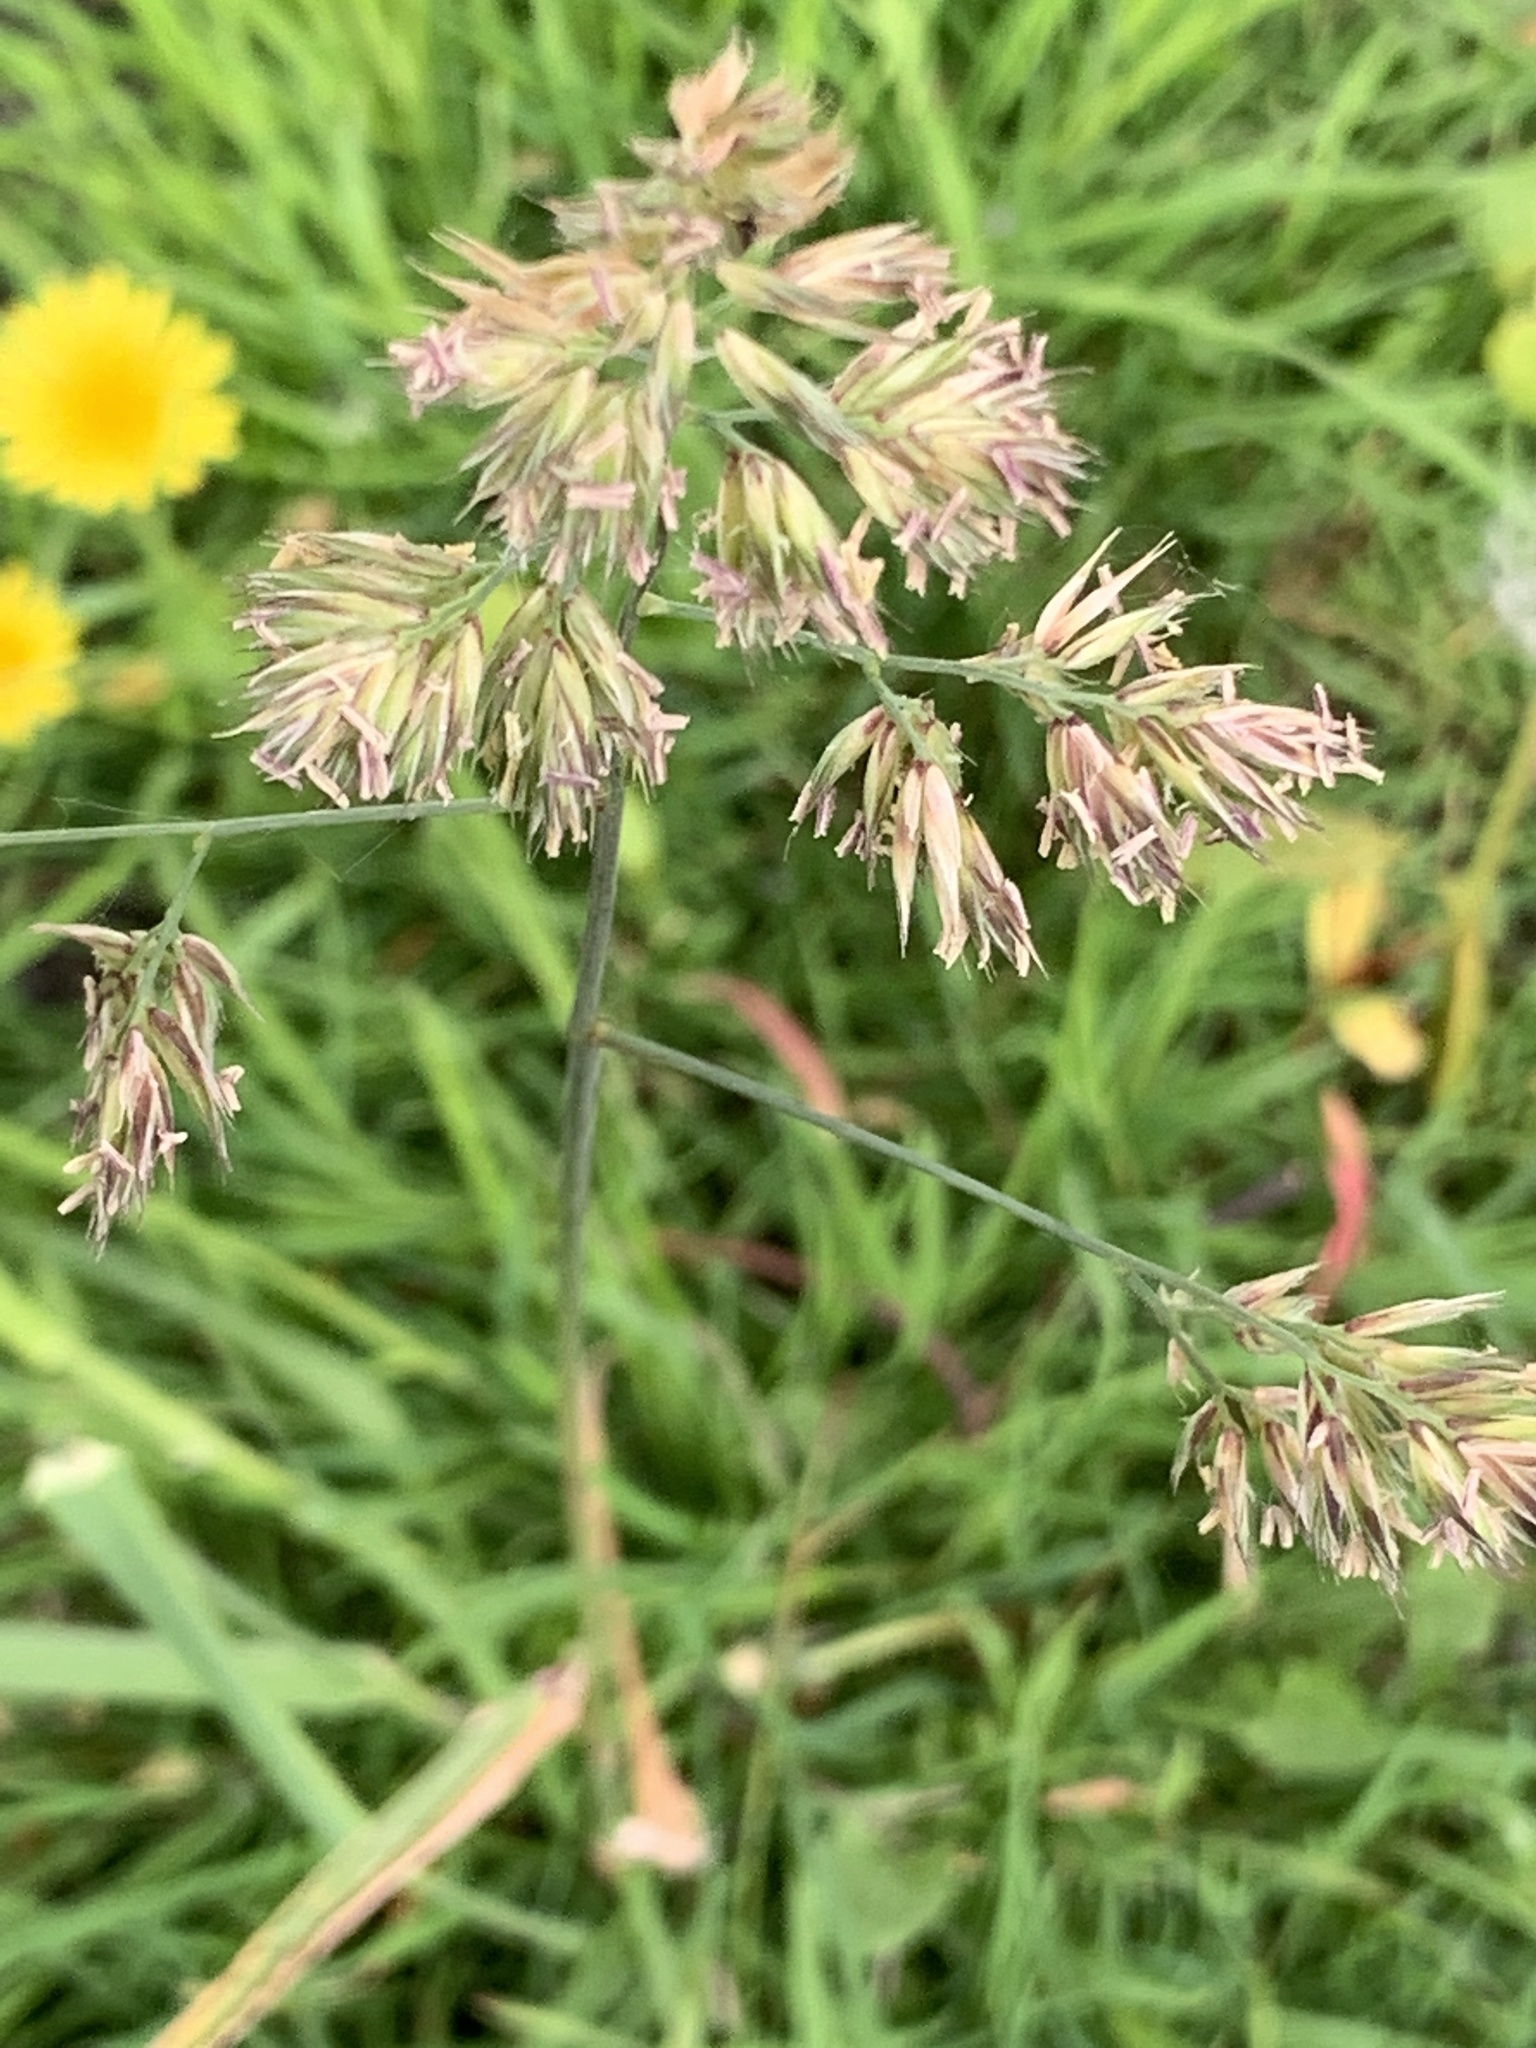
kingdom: Plantae
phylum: Tracheophyta
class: Liliopsida
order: Poales
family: Poaceae
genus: Dactylis
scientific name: Dactylis glomerata
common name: Orchardgrass
